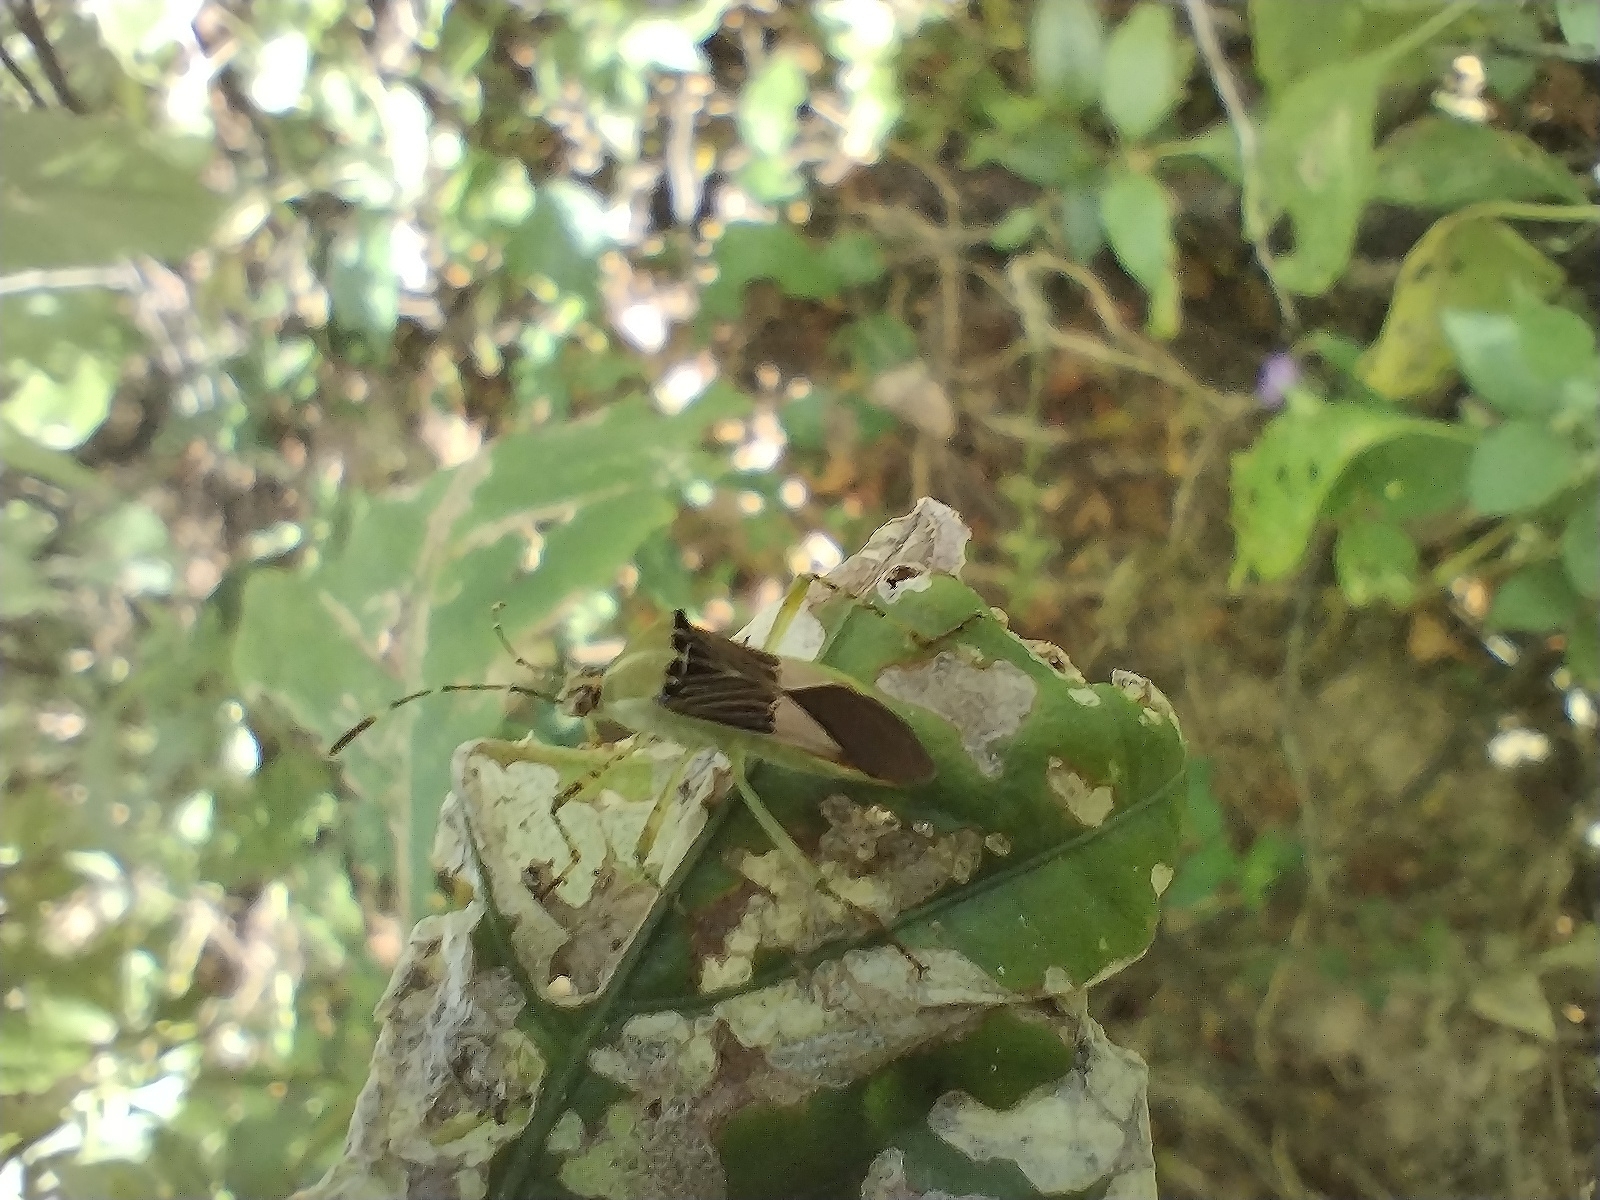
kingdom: Animalia
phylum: Arthropoda
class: Insecta
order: Hemiptera
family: Coreidae
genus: Hypselonotus
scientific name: Hypselonotus fulvus
